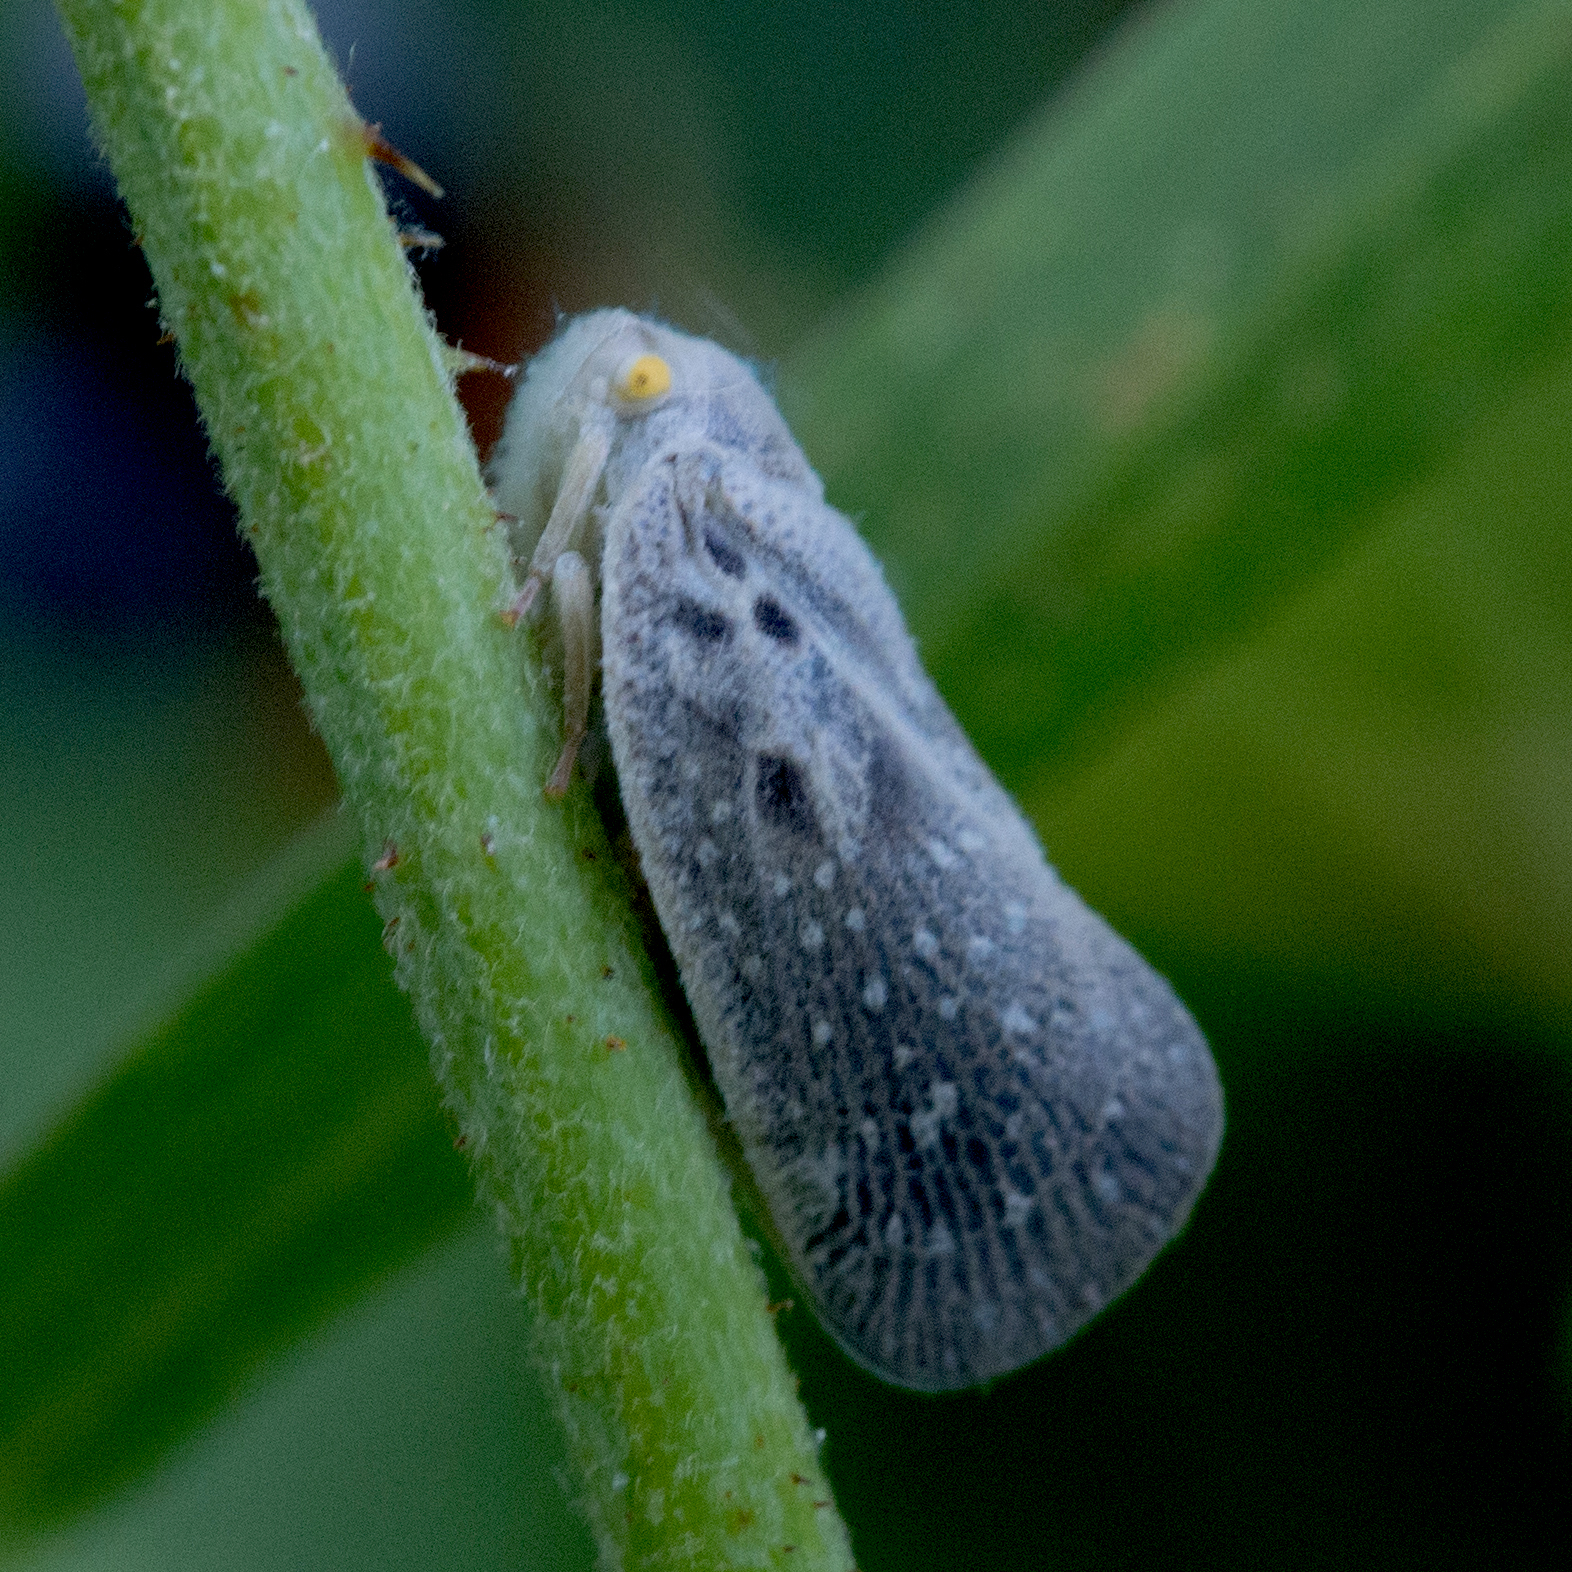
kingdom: Animalia
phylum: Arthropoda
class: Insecta
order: Hemiptera
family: Flatidae
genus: Metcalfa
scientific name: Metcalfa pruinosa
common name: Citrus flatid planthopper
